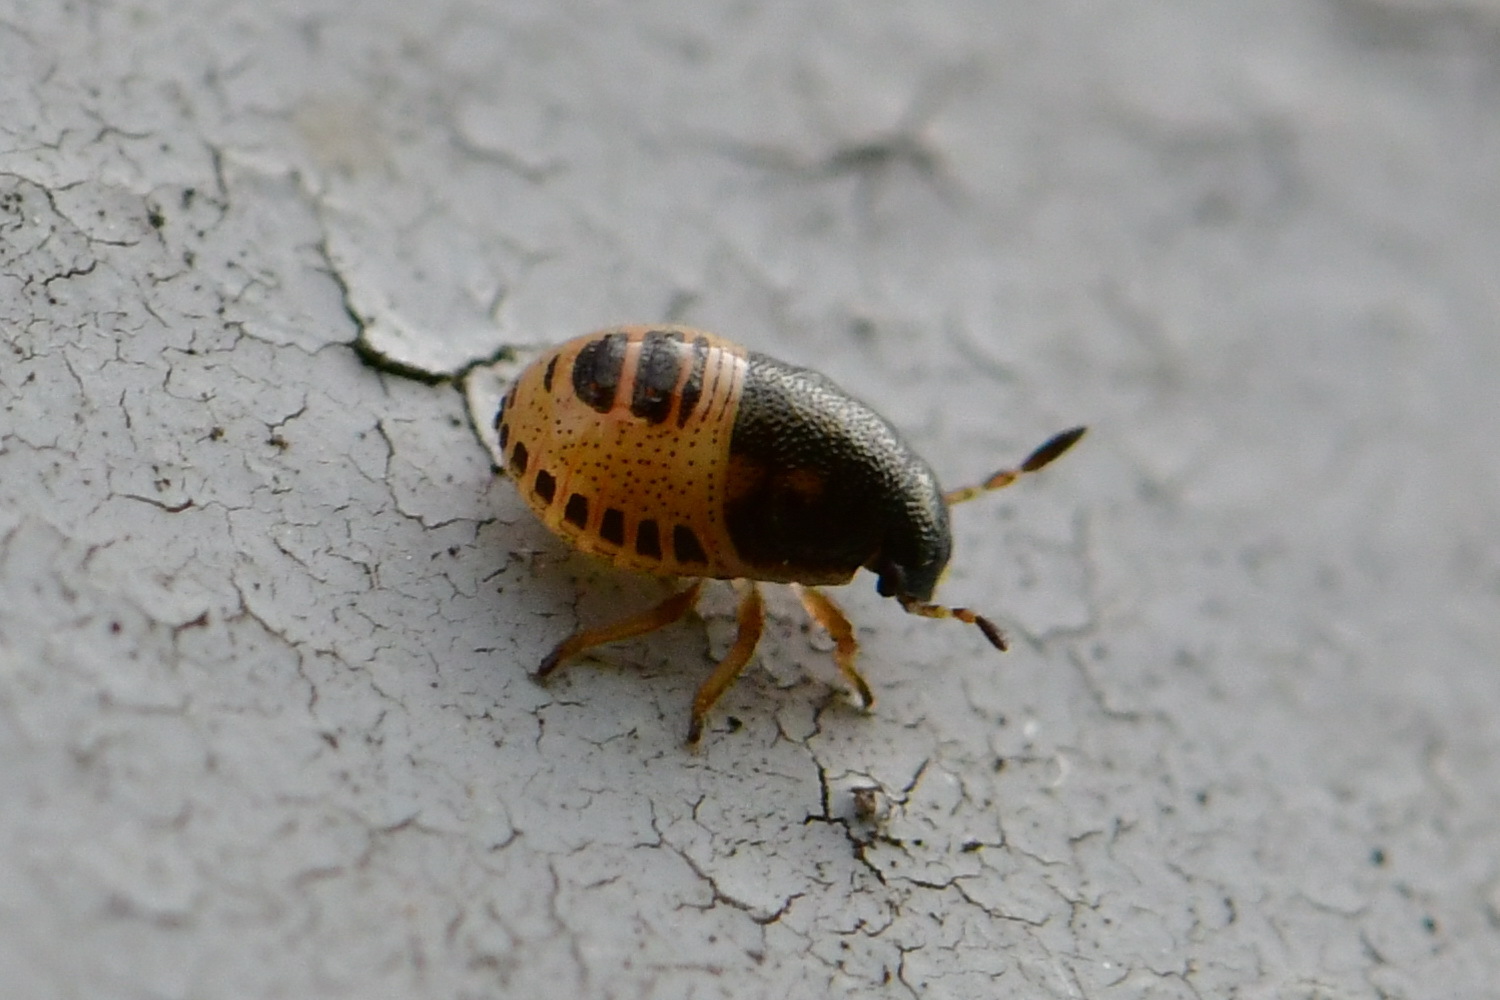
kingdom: Animalia
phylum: Arthropoda
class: Insecta
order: Hemiptera
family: Pentatomidae
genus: Neottiglossa
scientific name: Neottiglossa pusilla
